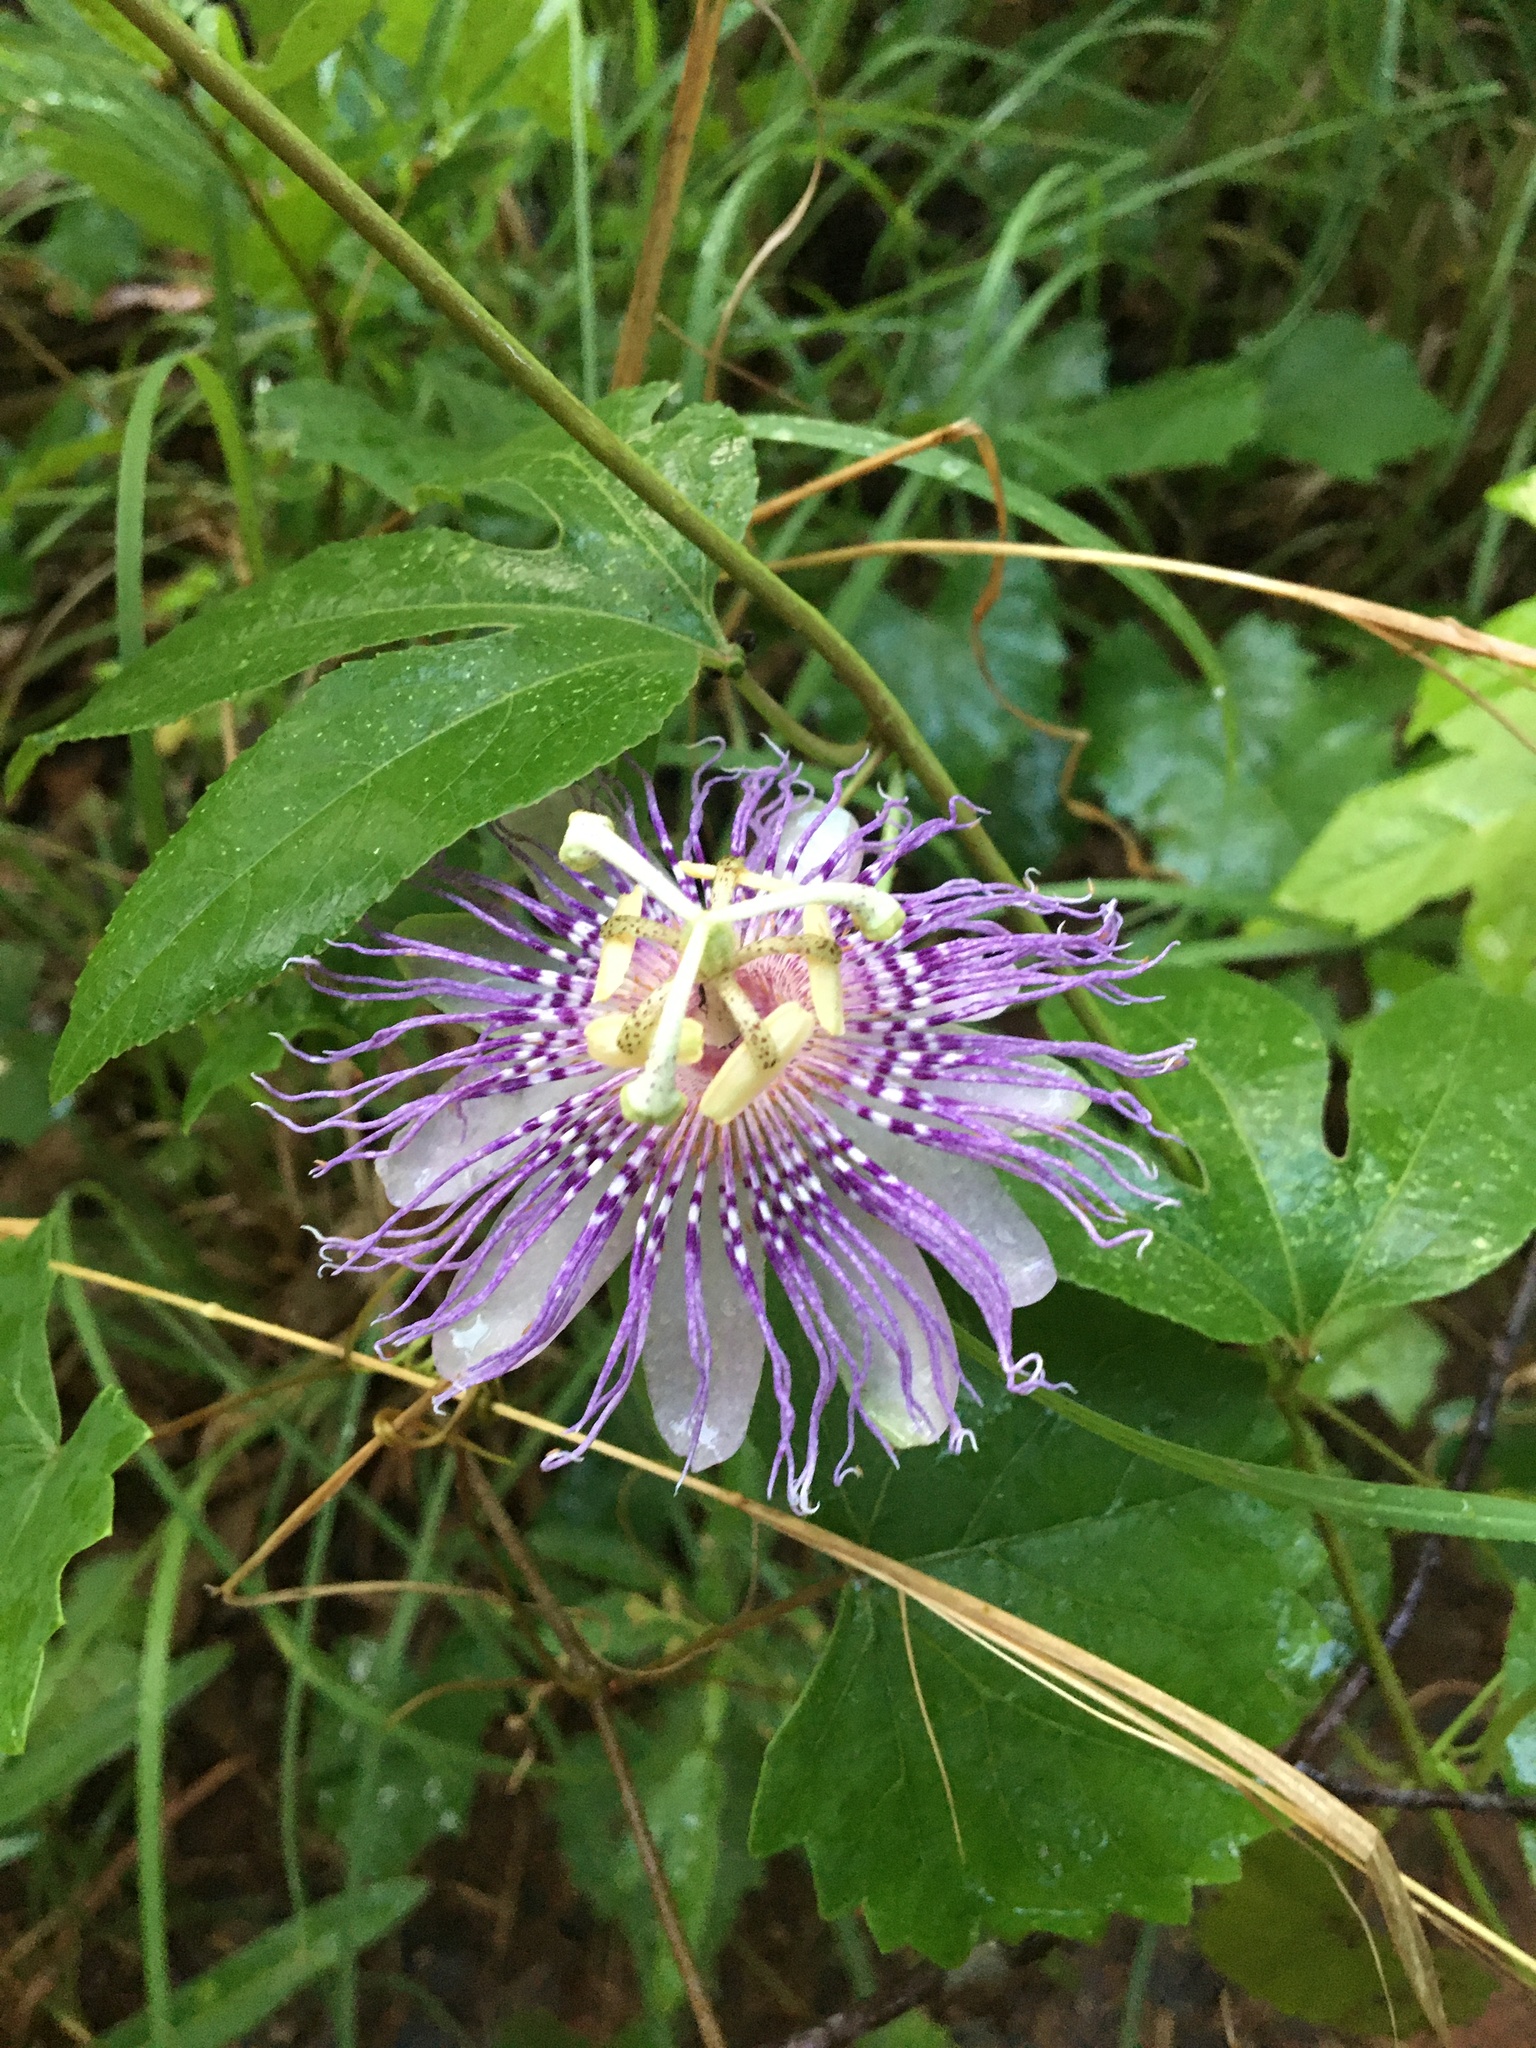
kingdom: Plantae
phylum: Tracheophyta
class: Magnoliopsida
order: Malpighiales
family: Passifloraceae
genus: Passiflora
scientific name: Passiflora incarnata
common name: Apricot-vine
